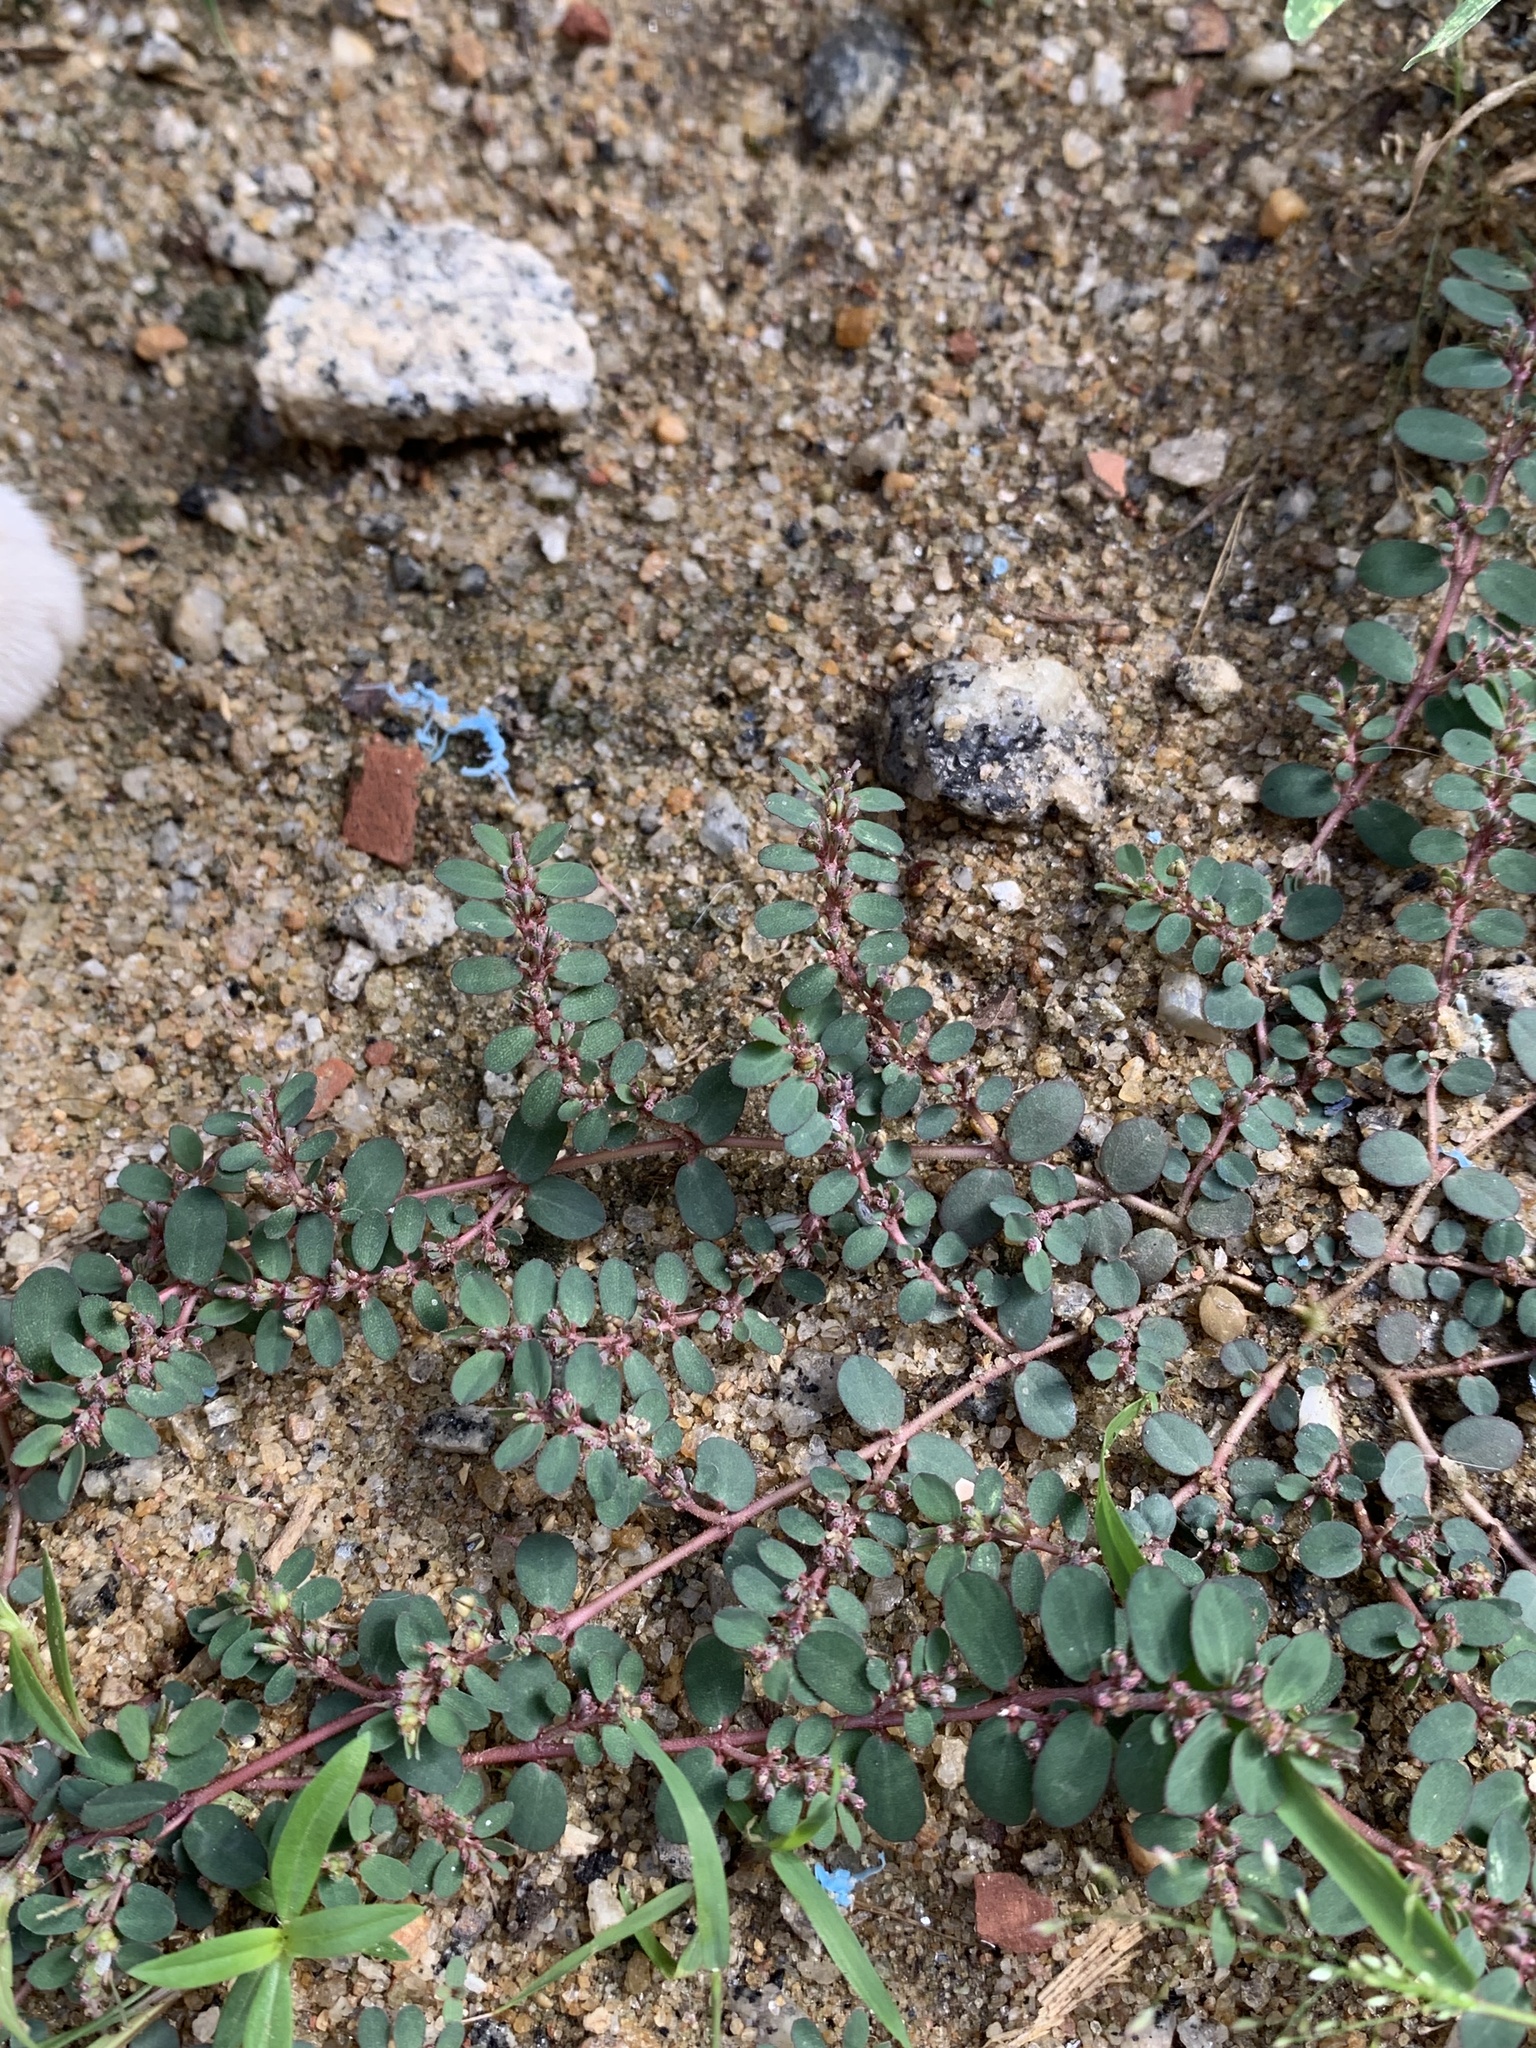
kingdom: Plantae
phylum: Tracheophyta
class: Magnoliopsida
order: Malpighiales
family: Euphorbiaceae
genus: Euphorbia
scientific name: Euphorbia prostrata
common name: Prostrate sandmat
